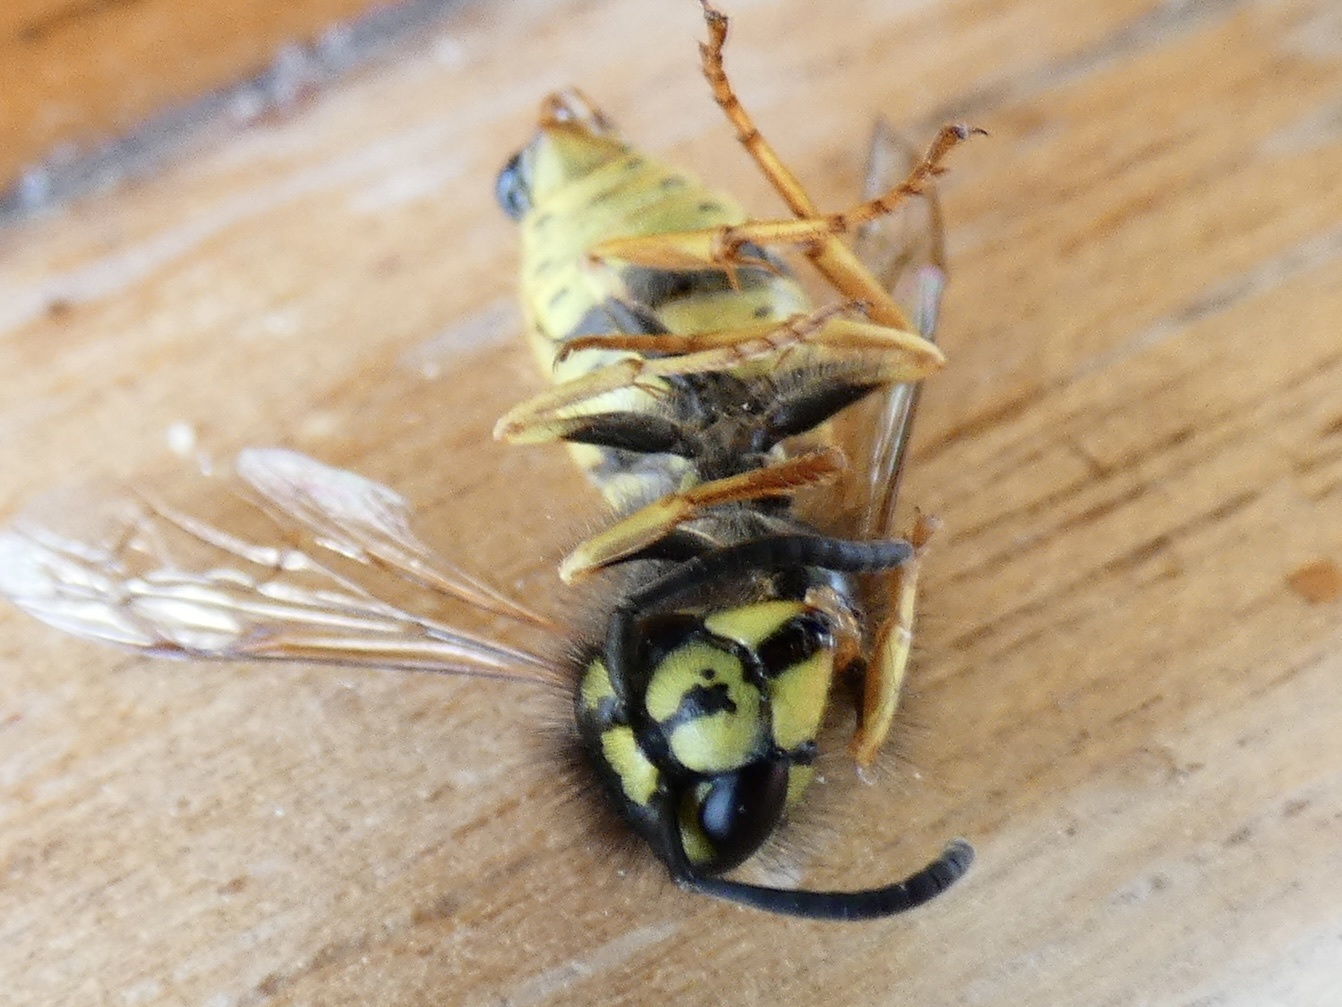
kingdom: Animalia
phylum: Arthropoda
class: Insecta
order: Hymenoptera
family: Vespidae
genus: Vespula
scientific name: Vespula vulgaris
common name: Common wasp
